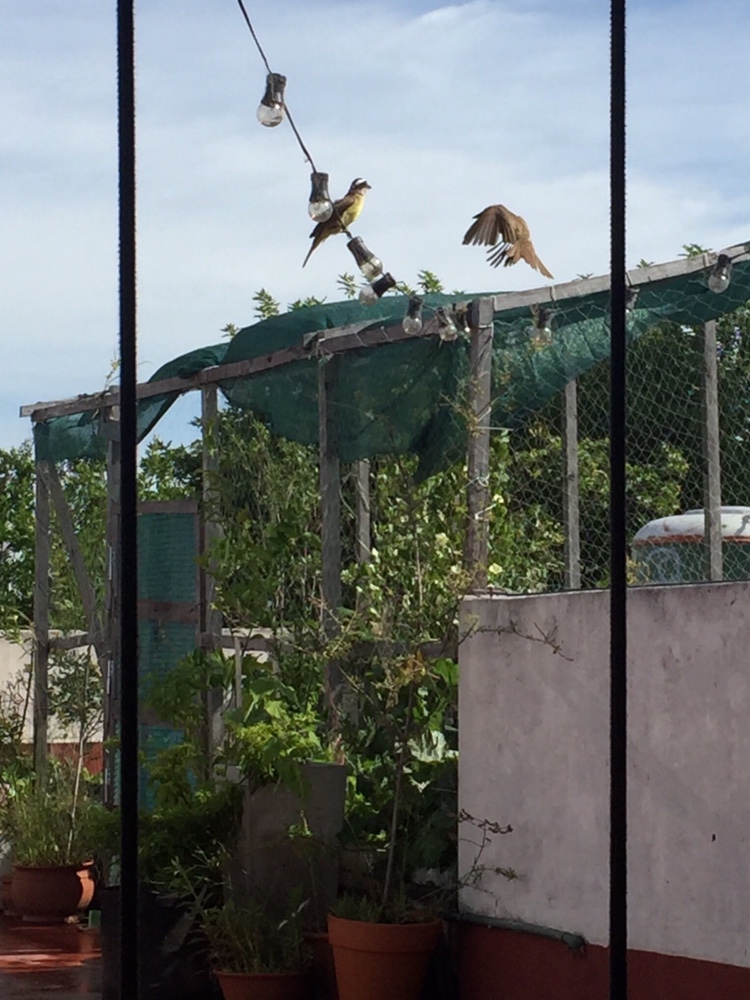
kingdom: Animalia
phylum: Chordata
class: Aves
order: Passeriformes
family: Tyrannidae
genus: Pitangus
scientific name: Pitangus sulphuratus
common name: Great kiskadee
